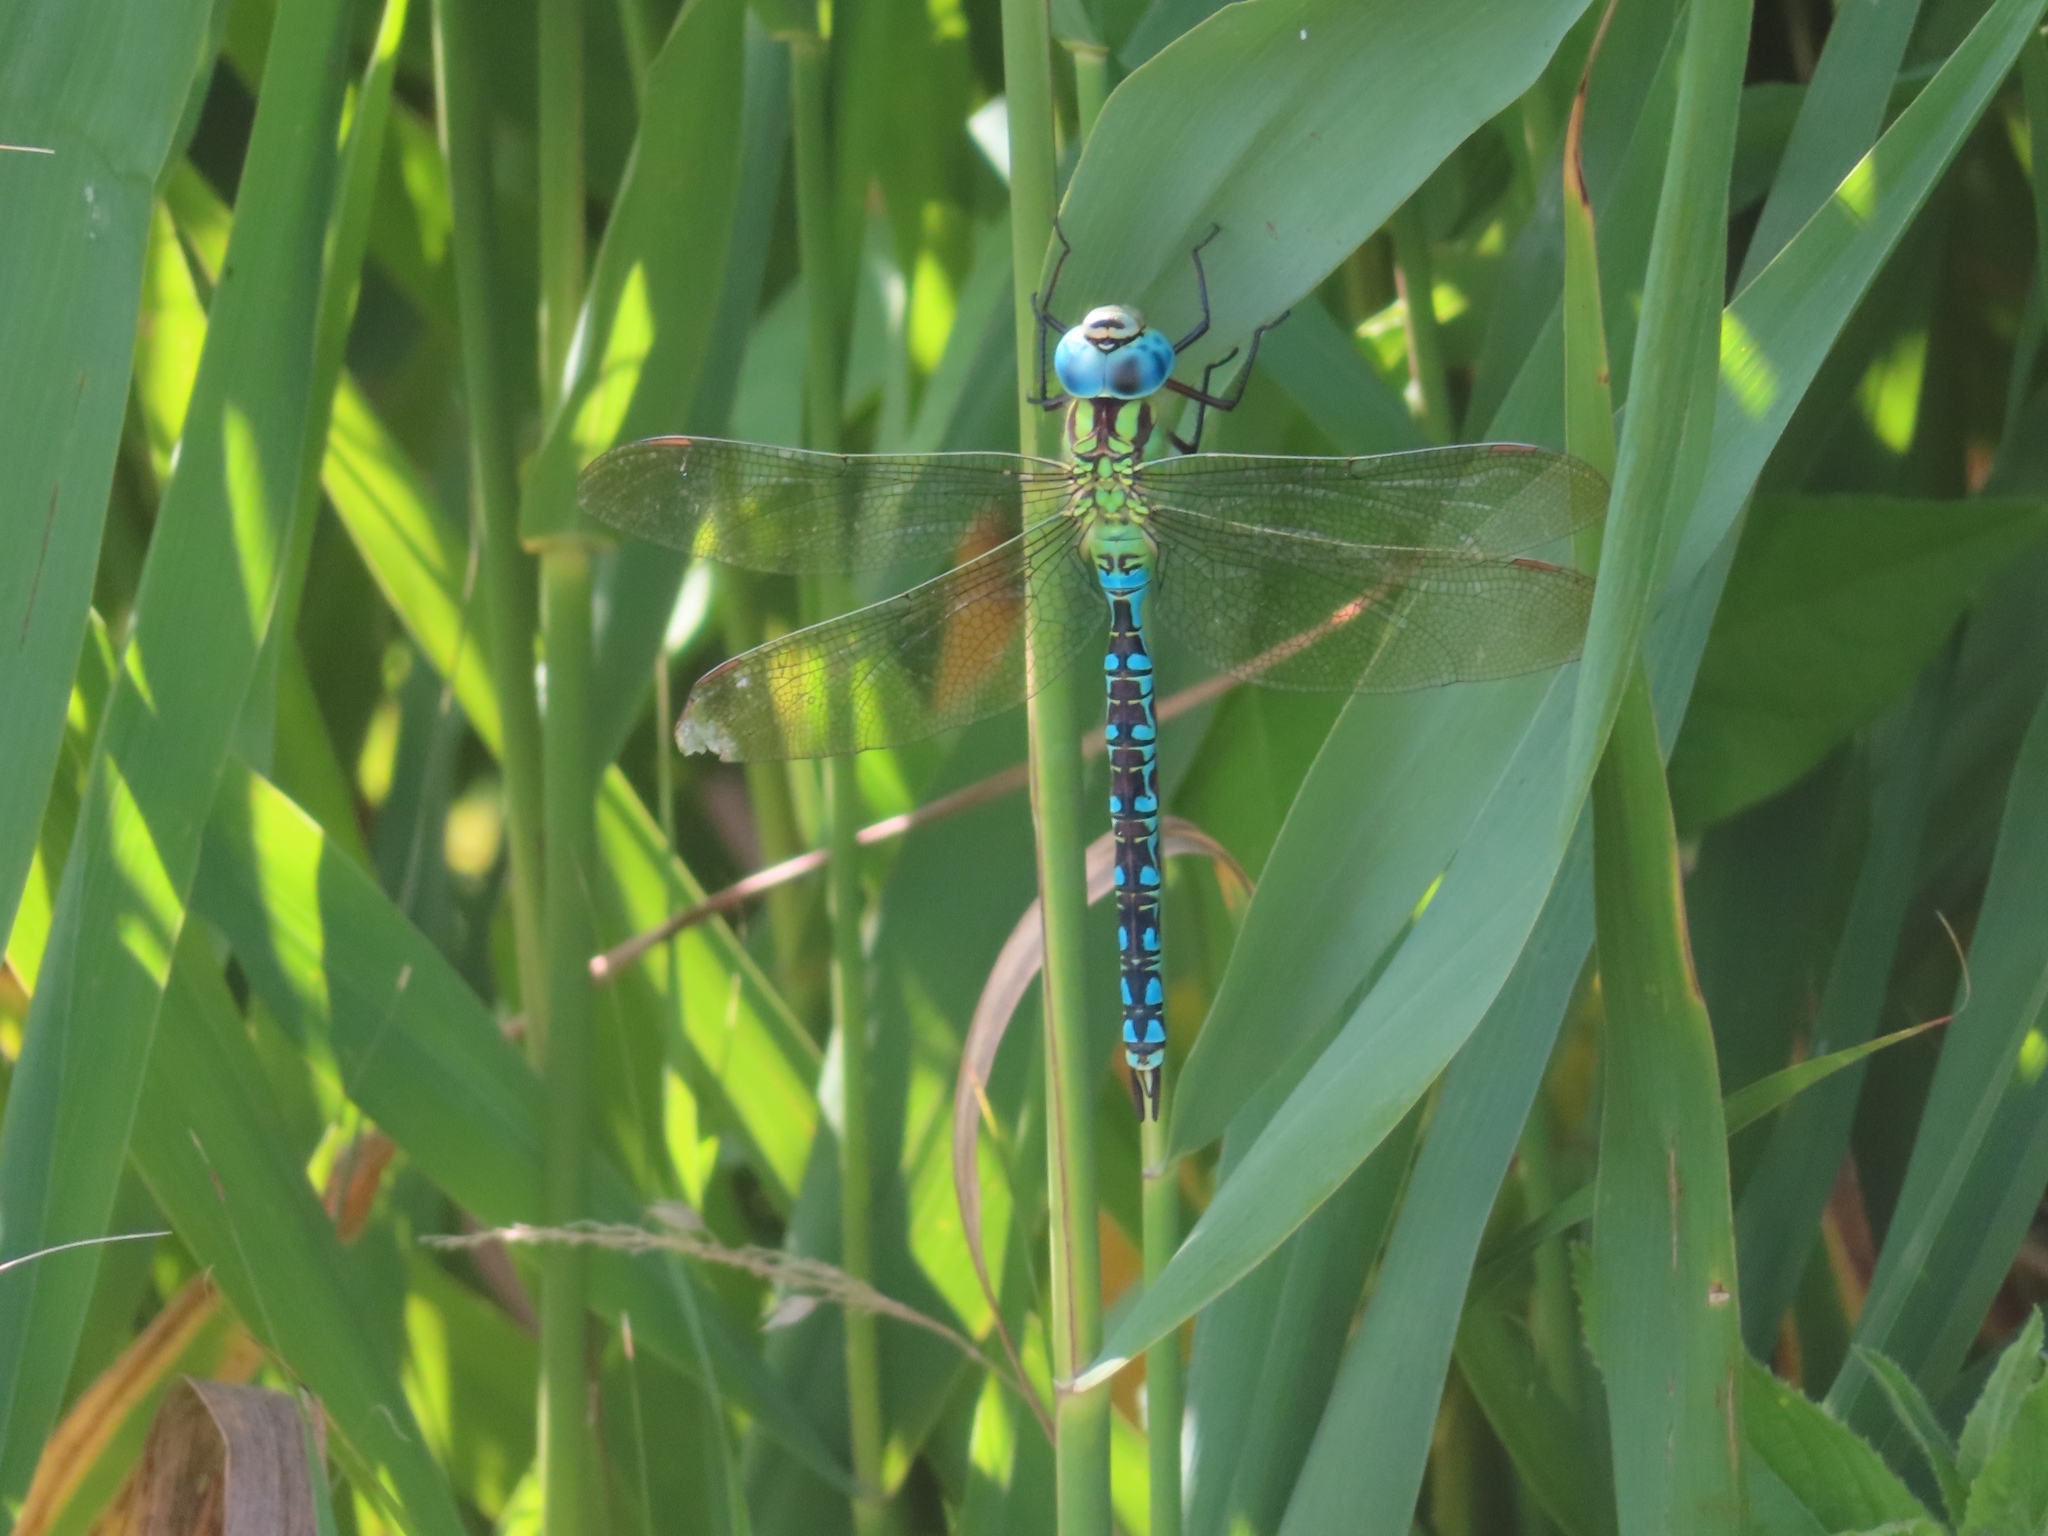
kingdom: Animalia
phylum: Arthropoda
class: Insecta
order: Odonata
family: Aeshnidae
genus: Aeshna
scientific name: Aeshna viridis
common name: Green hawker
